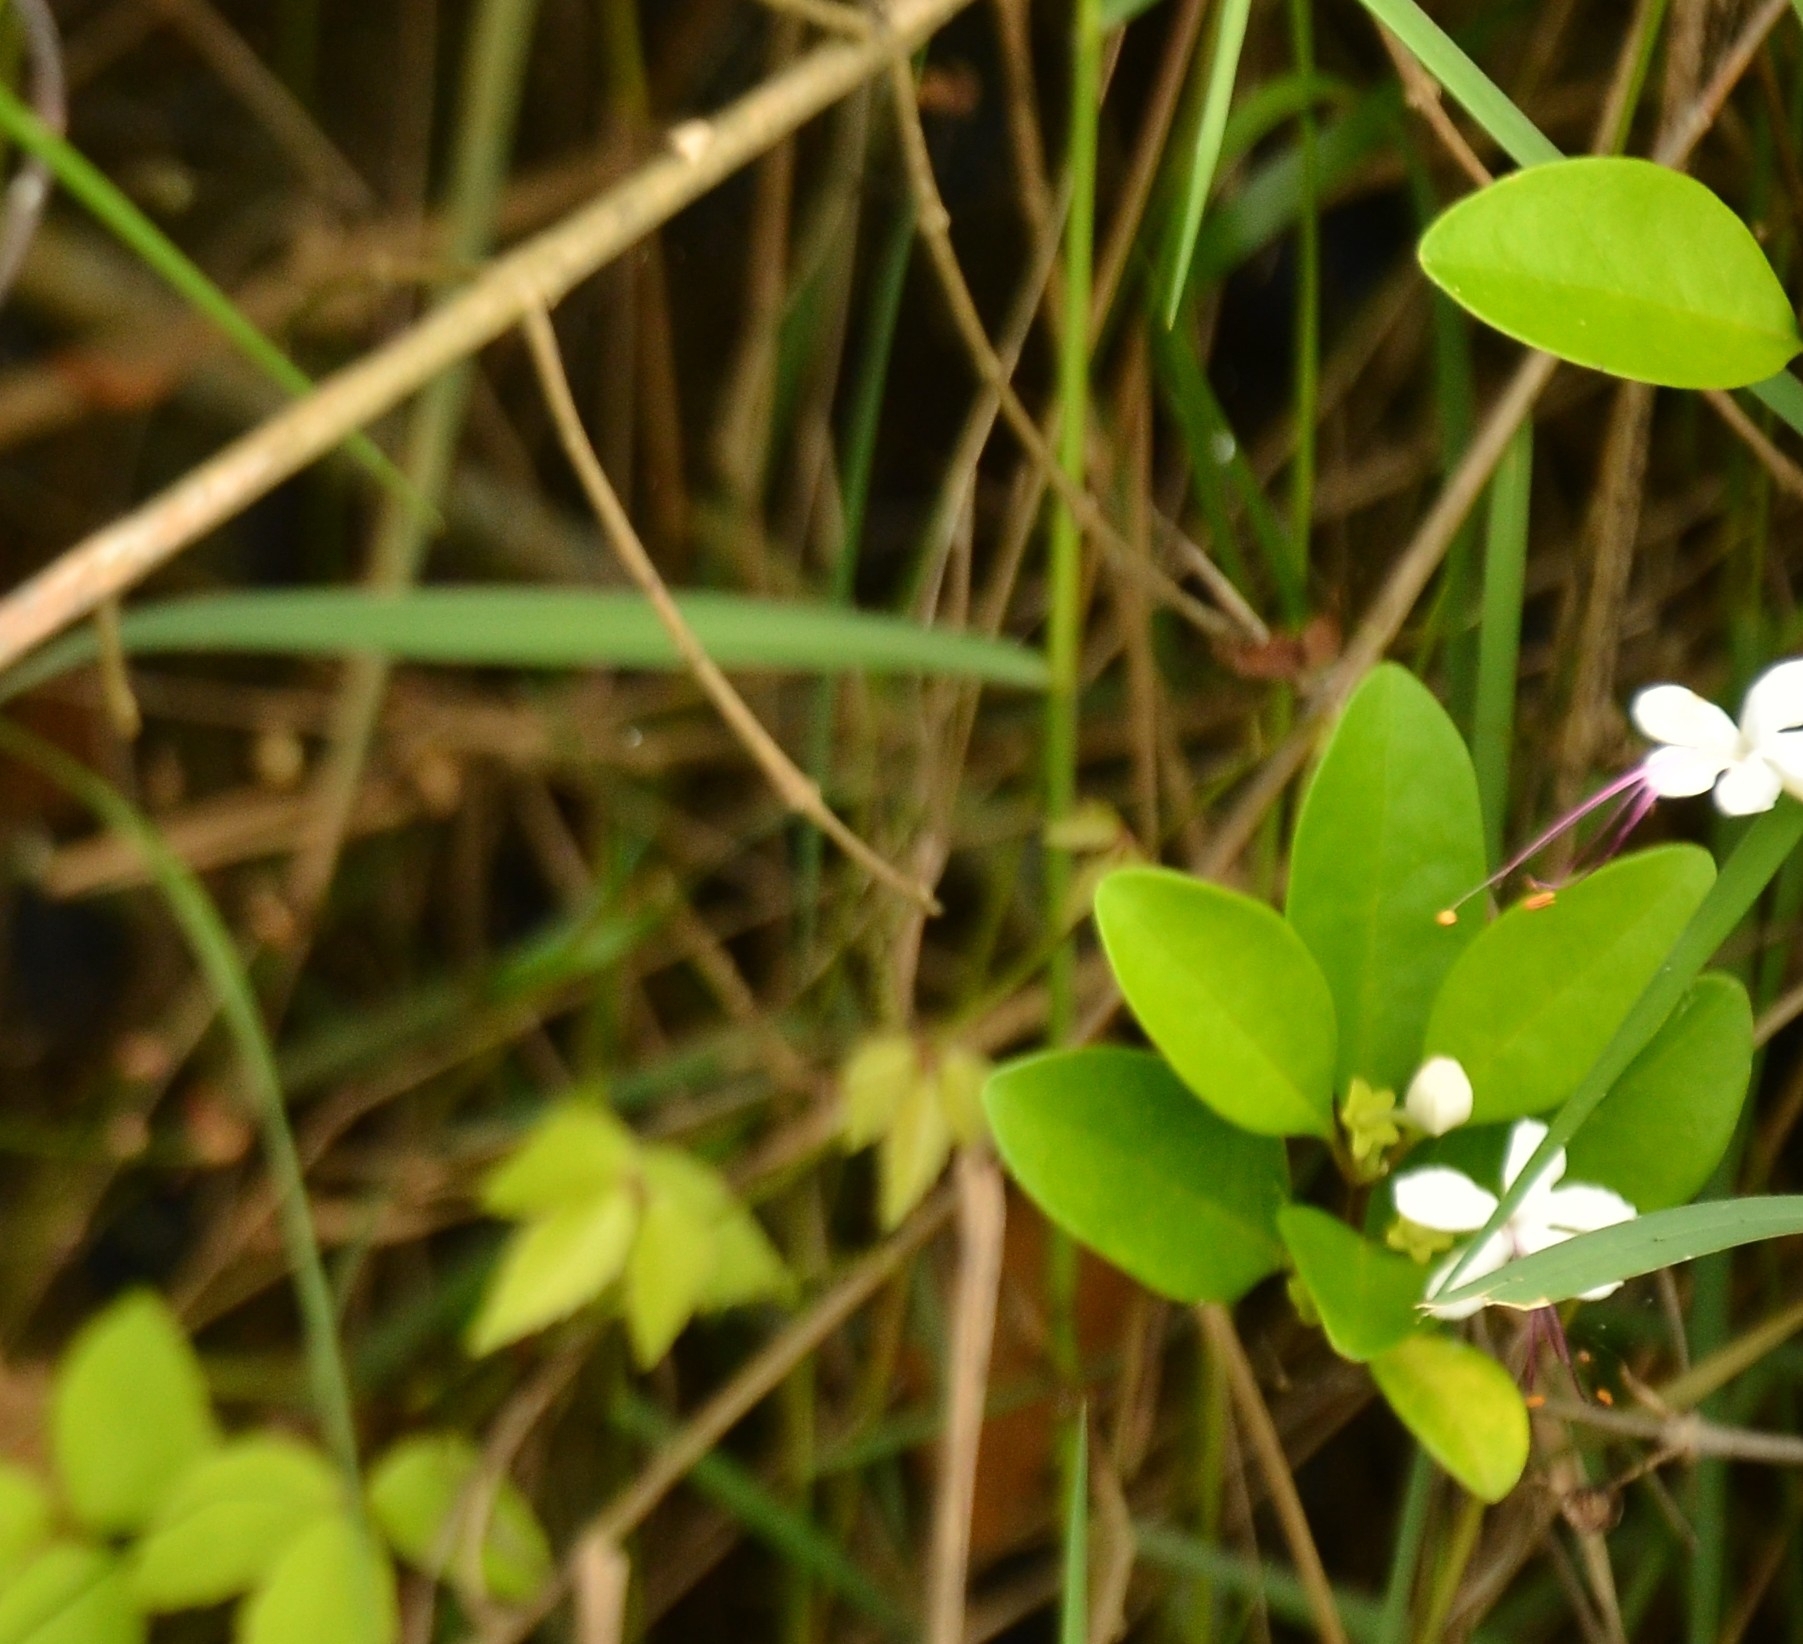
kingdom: Plantae
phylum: Tracheophyta
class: Magnoliopsida
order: Lamiales
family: Lamiaceae
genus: Volkameria
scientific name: Volkameria inermis
